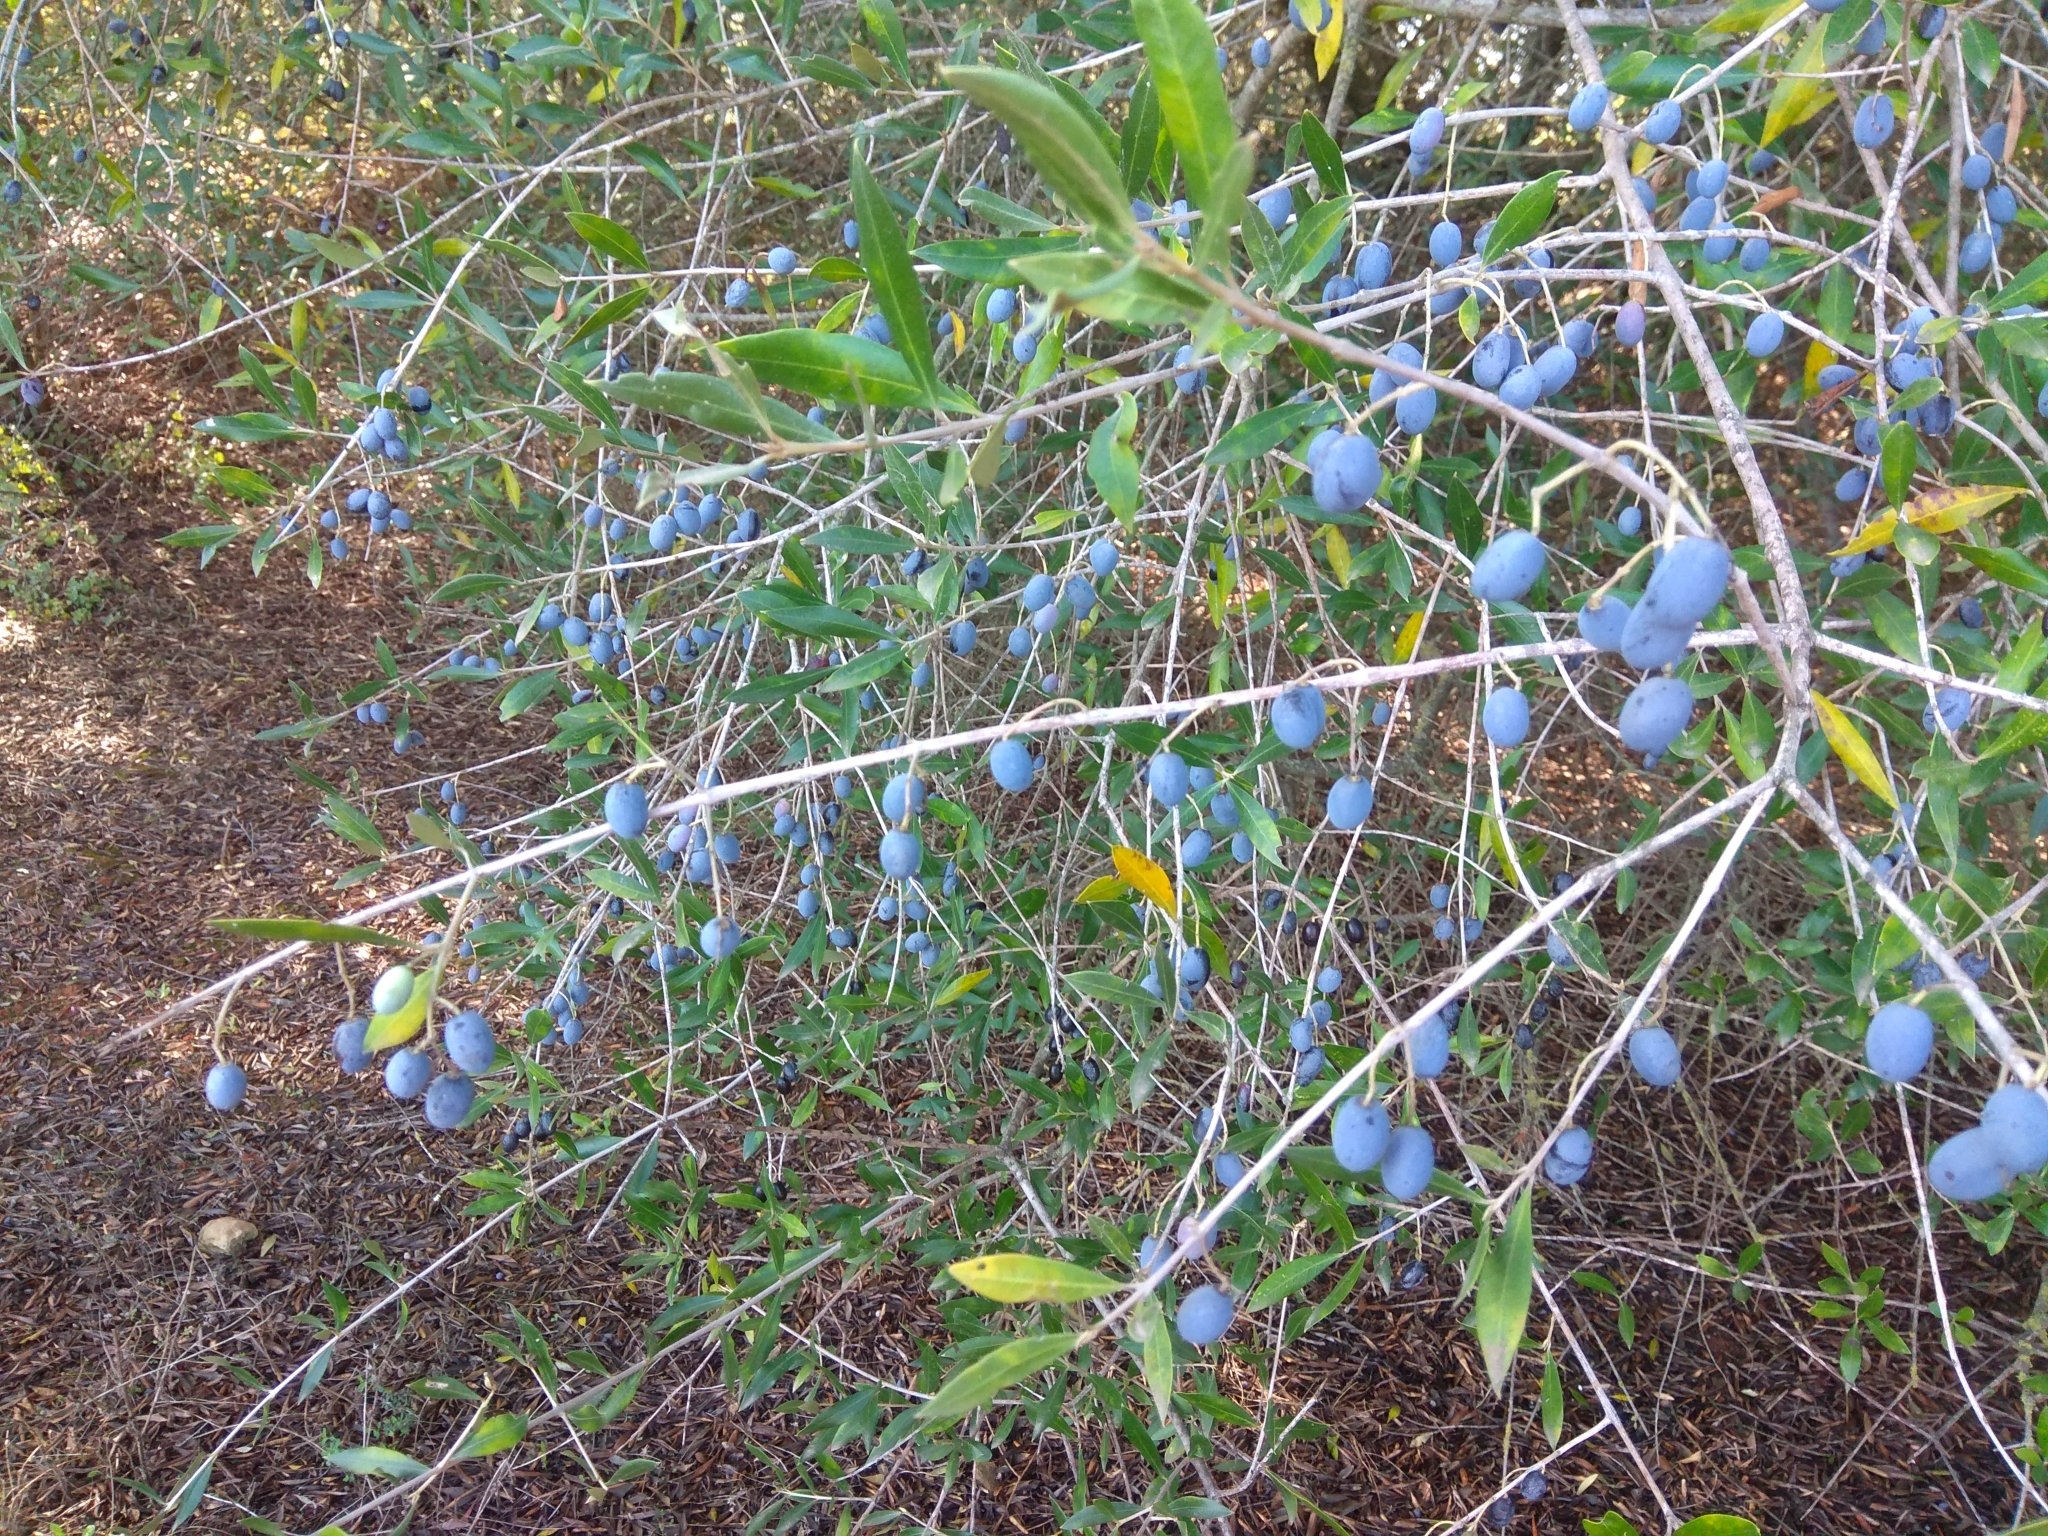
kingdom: Plantae
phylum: Tracheophyta
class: Magnoliopsida
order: Lamiales
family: Oleaceae
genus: Olea
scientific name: Olea europaea
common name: Olive
